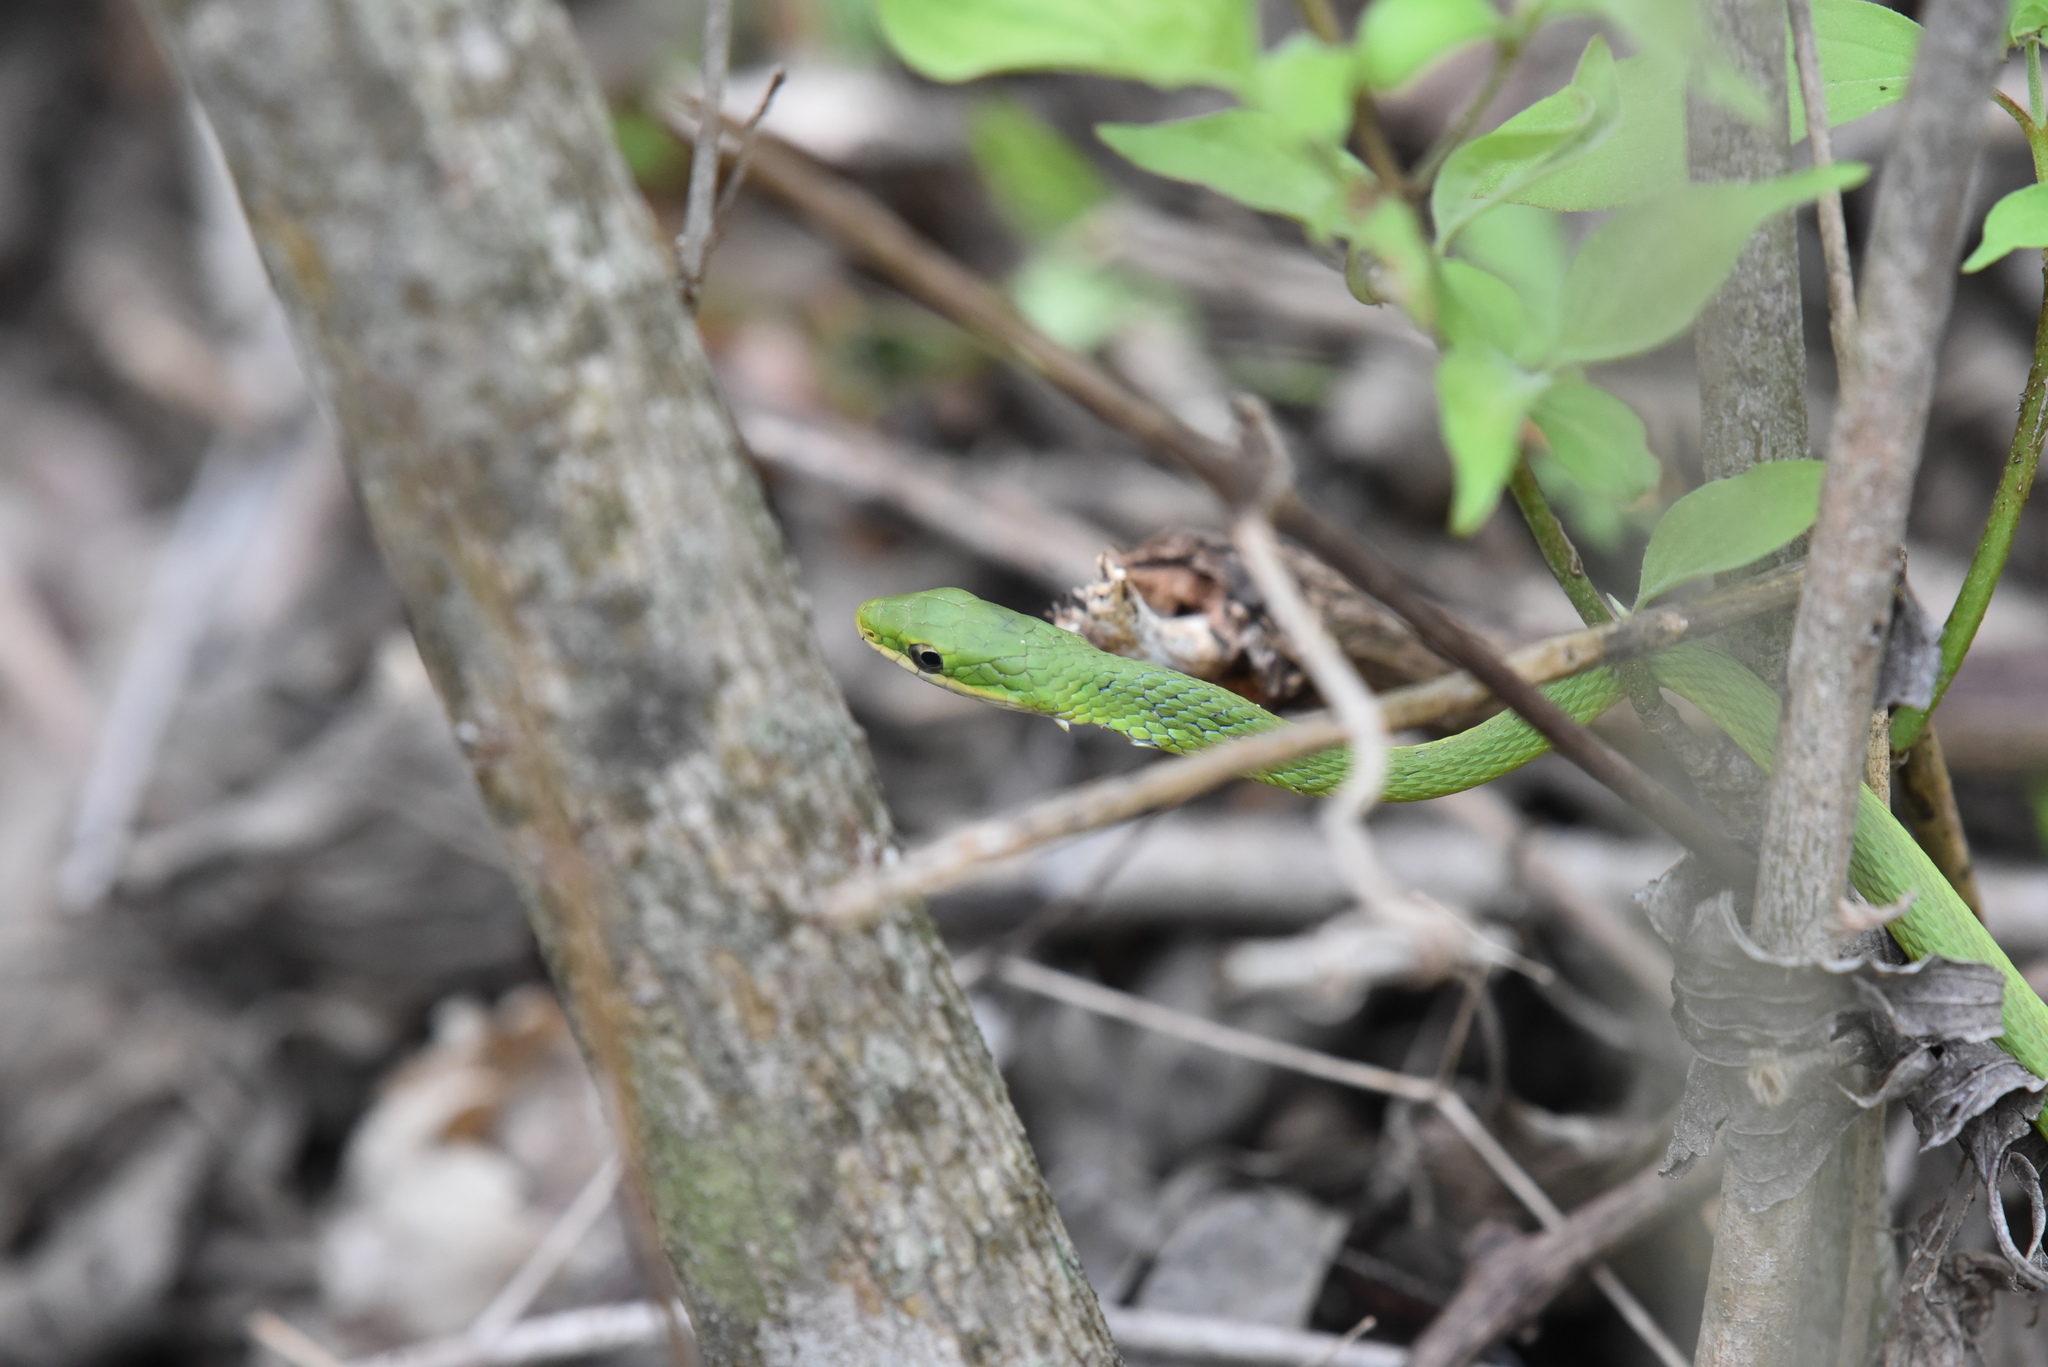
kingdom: Animalia
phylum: Chordata
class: Squamata
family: Colubridae
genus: Opheodrys
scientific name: Opheodrys aestivus
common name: Rough greensnake
